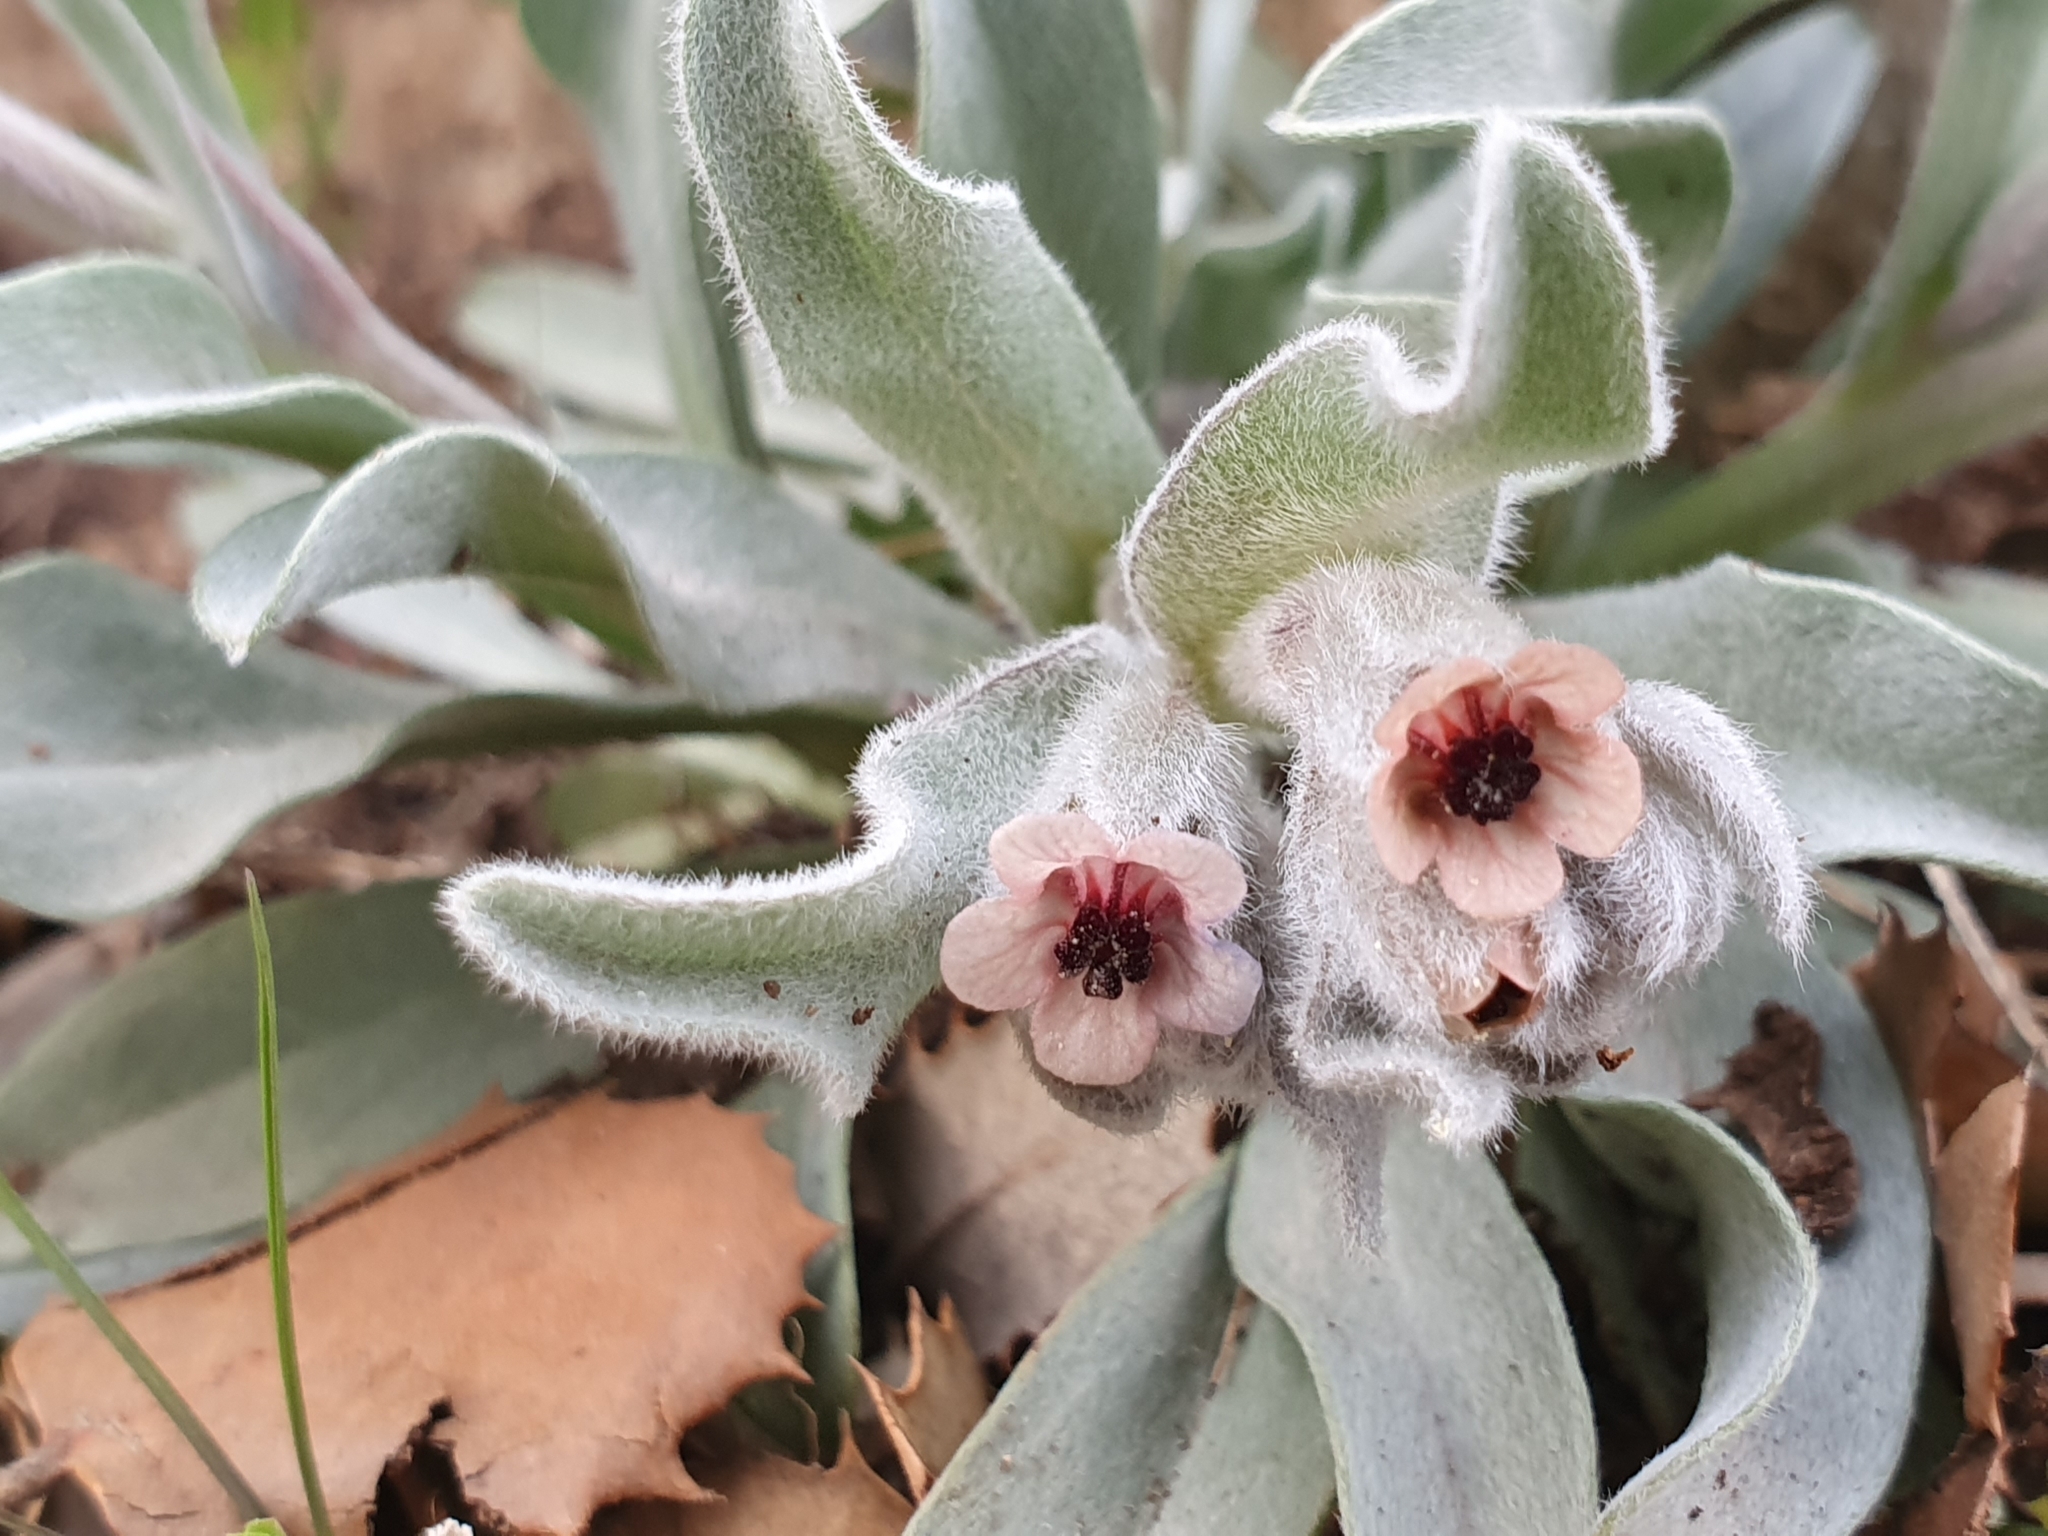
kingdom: Plantae
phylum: Tracheophyta
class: Magnoliopsida
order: Boraginales
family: Boraginaceae
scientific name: Boraginaceae
